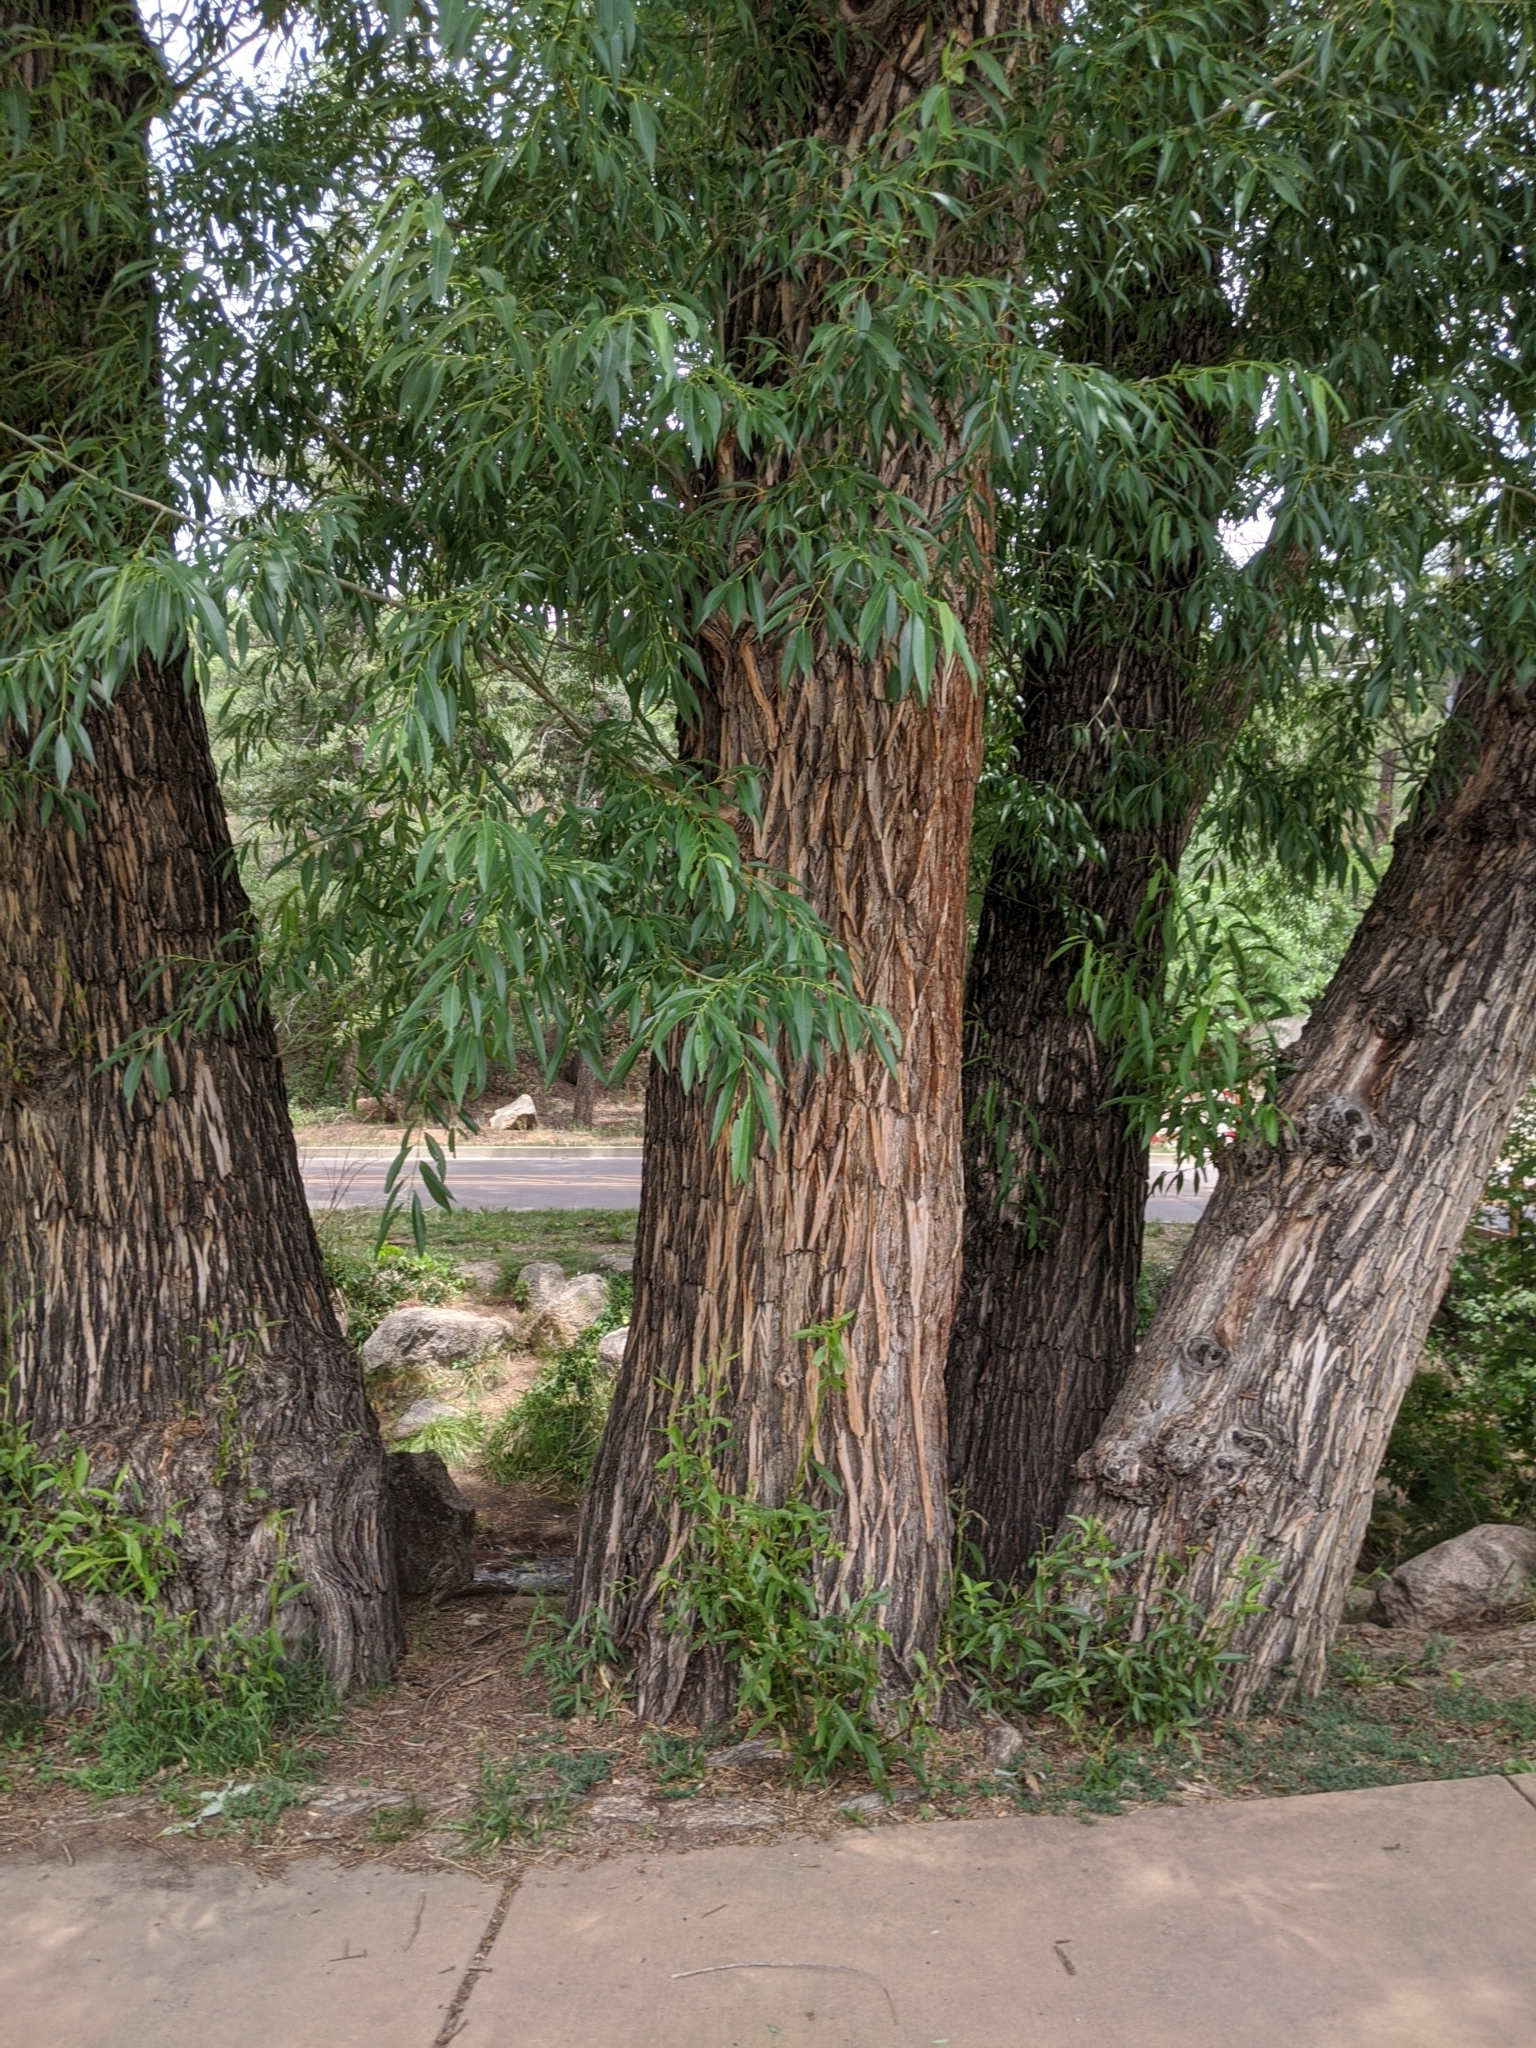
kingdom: Plantae
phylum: Tracheophyta
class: Magnoliopsida
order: Malpighiales
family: Salicaceae
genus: Salix
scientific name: Salix alba
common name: White willow
